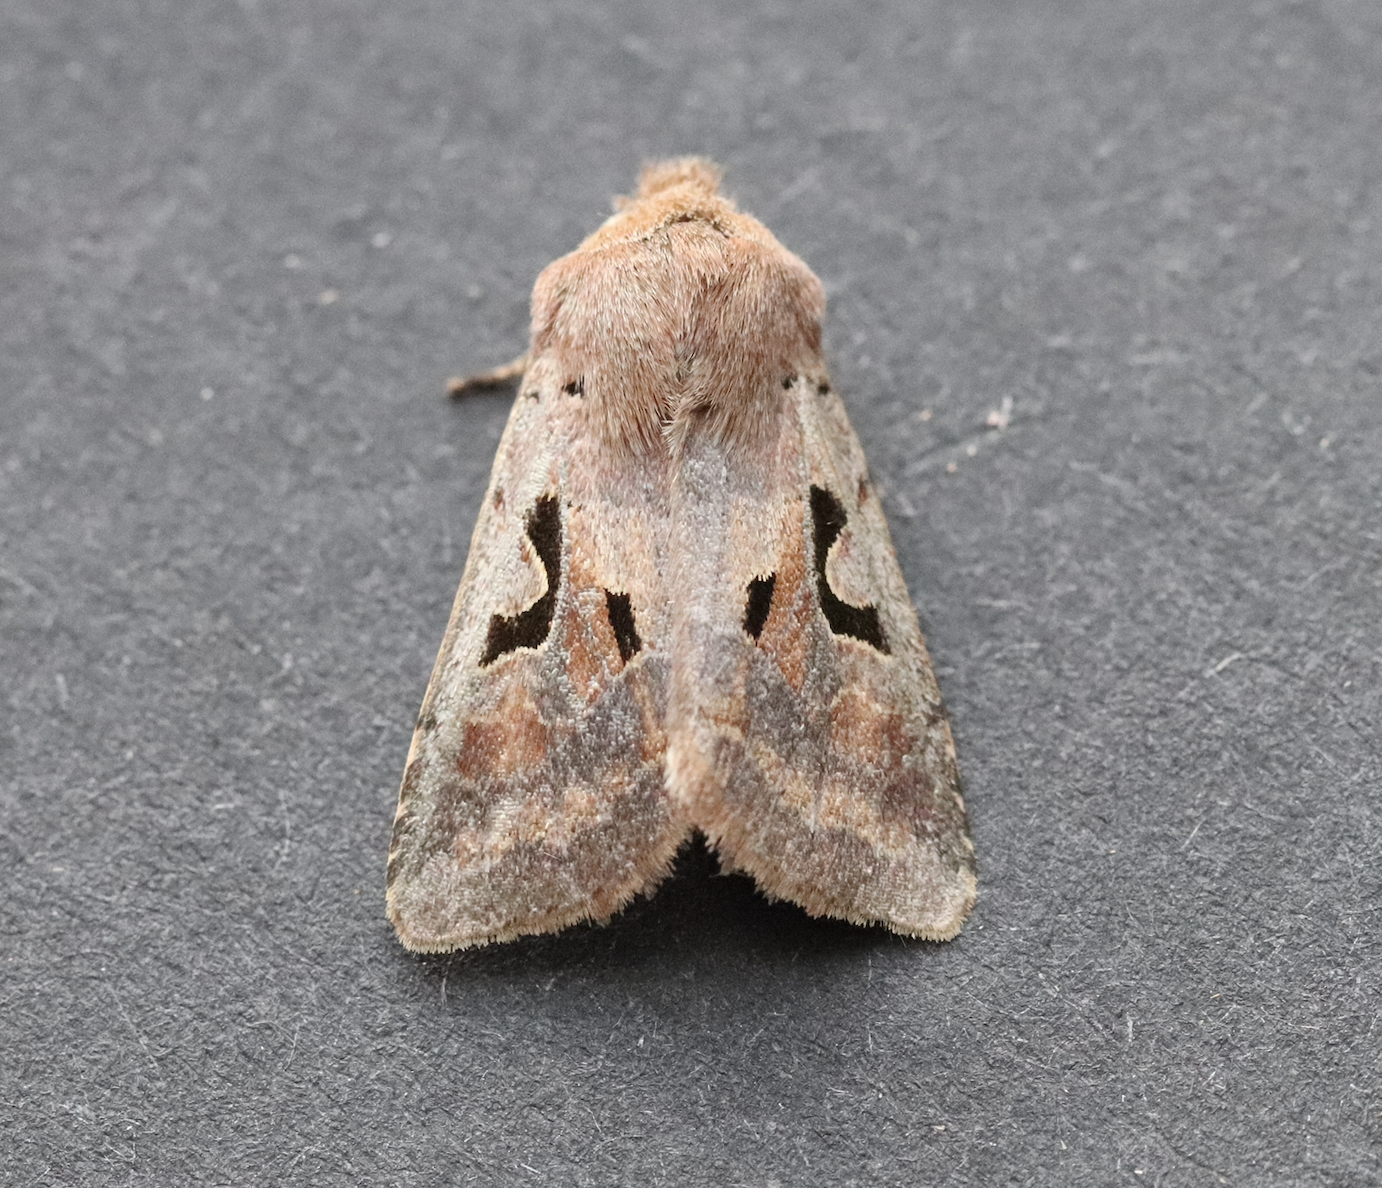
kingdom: Animalia
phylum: Arthropoda
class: Insecta
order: Lepidoptera
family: Noctuidae
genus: Orthosia
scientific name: Orthosia gothica
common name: Hebrew character
